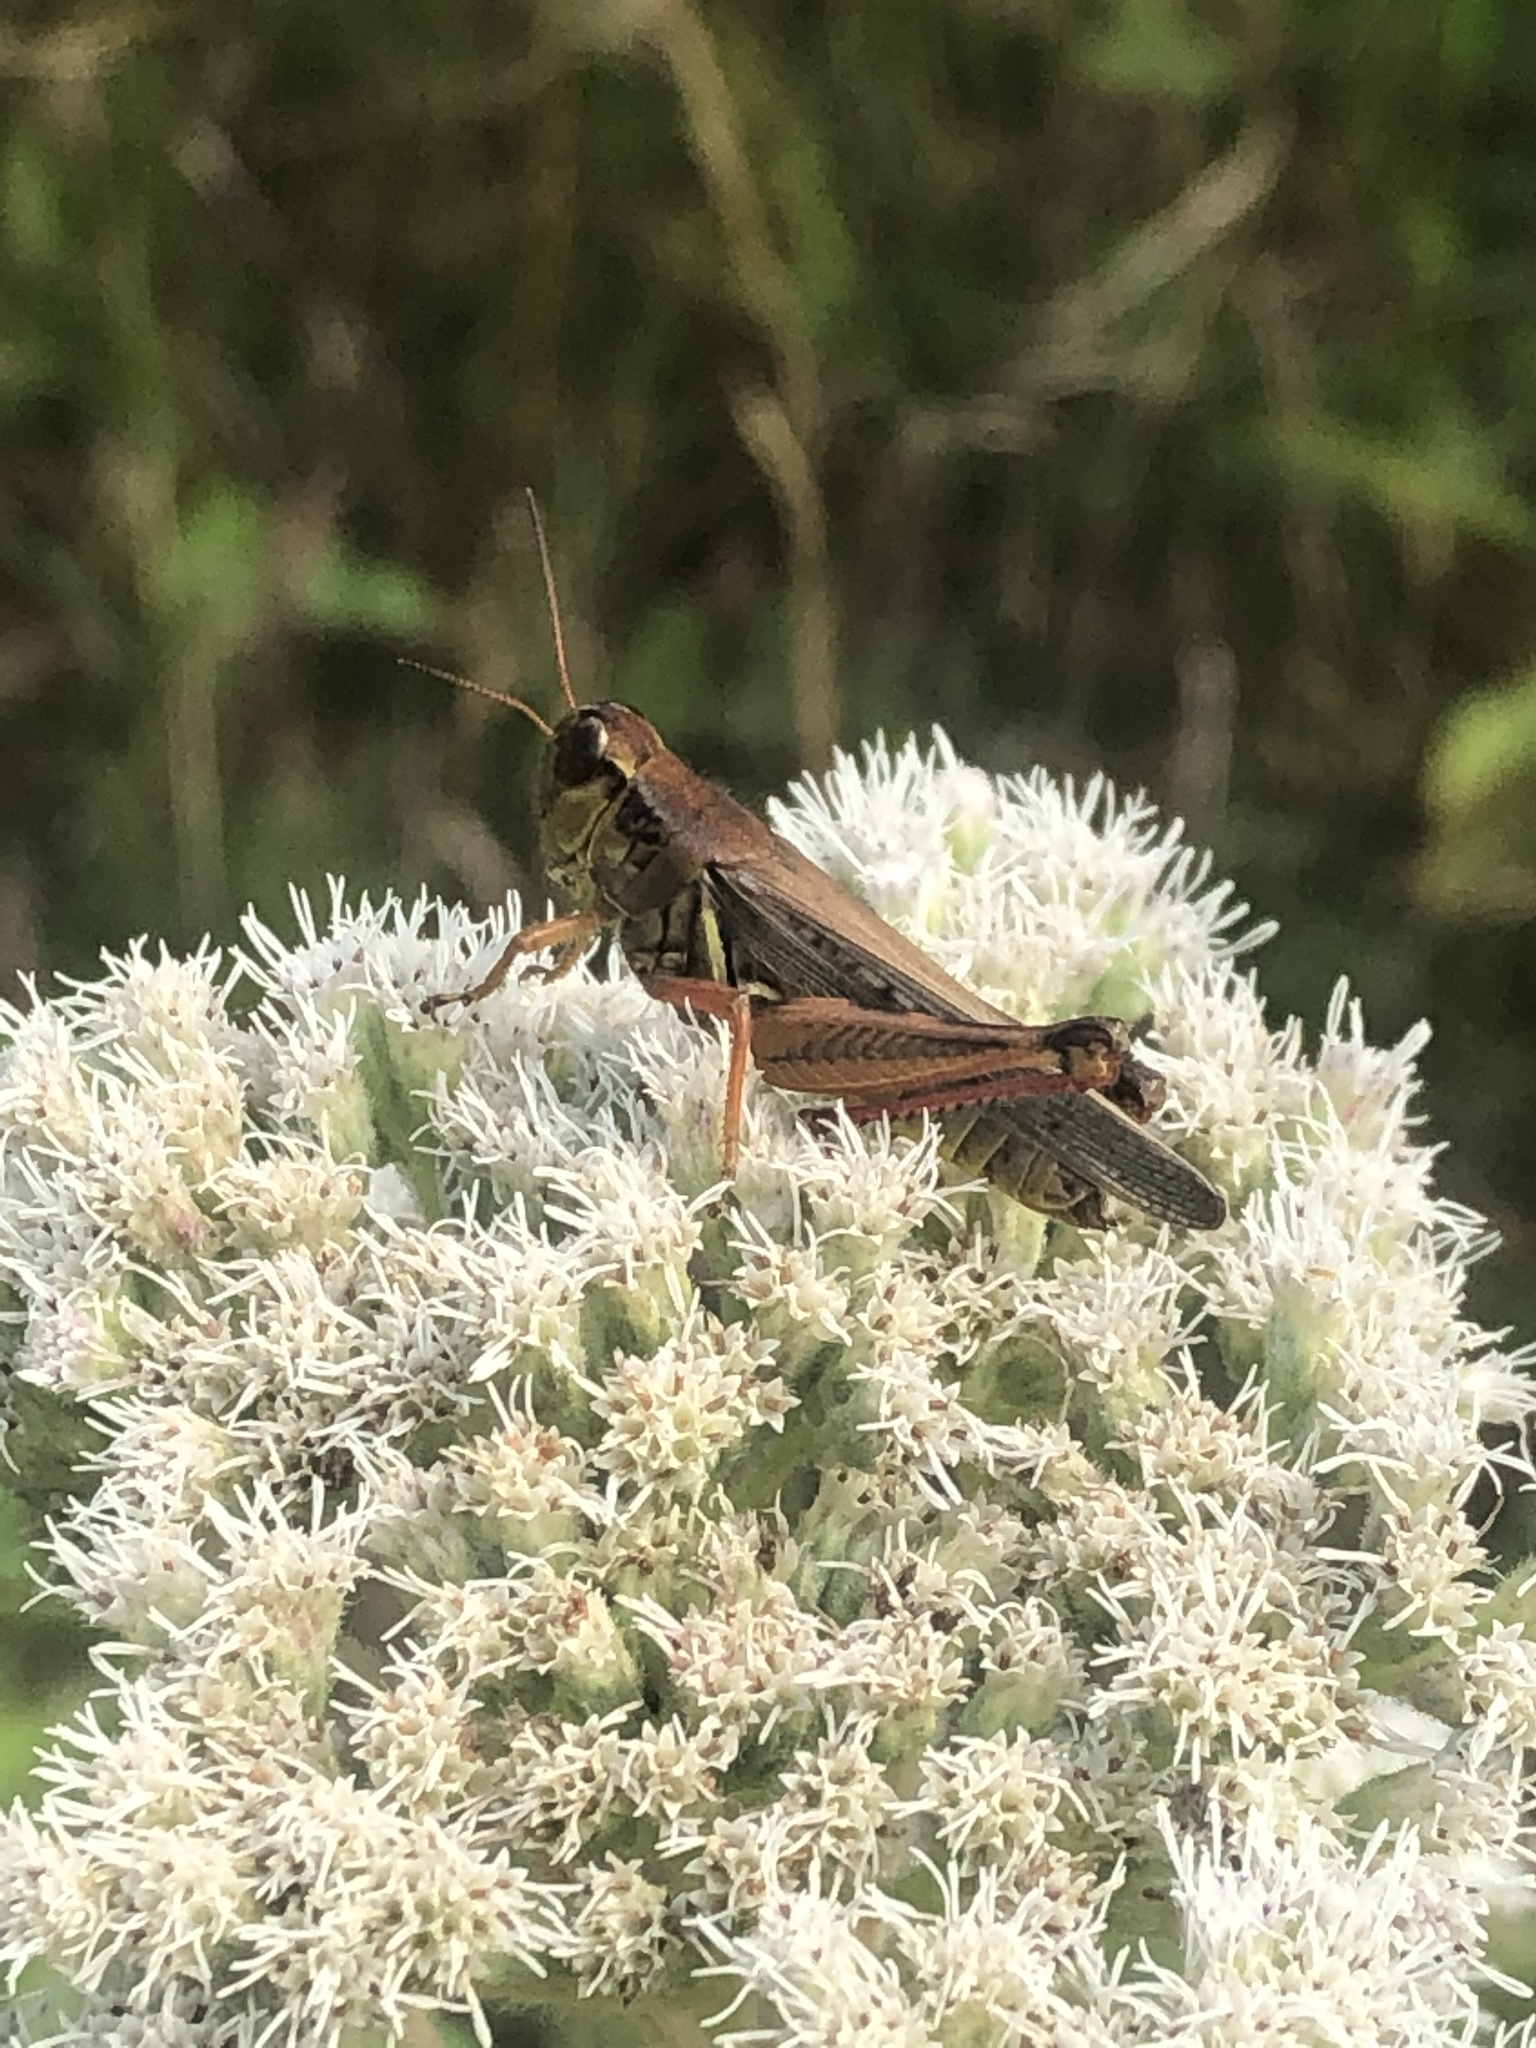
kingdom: Animalia
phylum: Arthropoda
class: Insecta
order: Orthoptera
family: Acrididae
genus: Melanoplus
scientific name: Melanoplus femurrubrum
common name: Red-legged grasshopper
